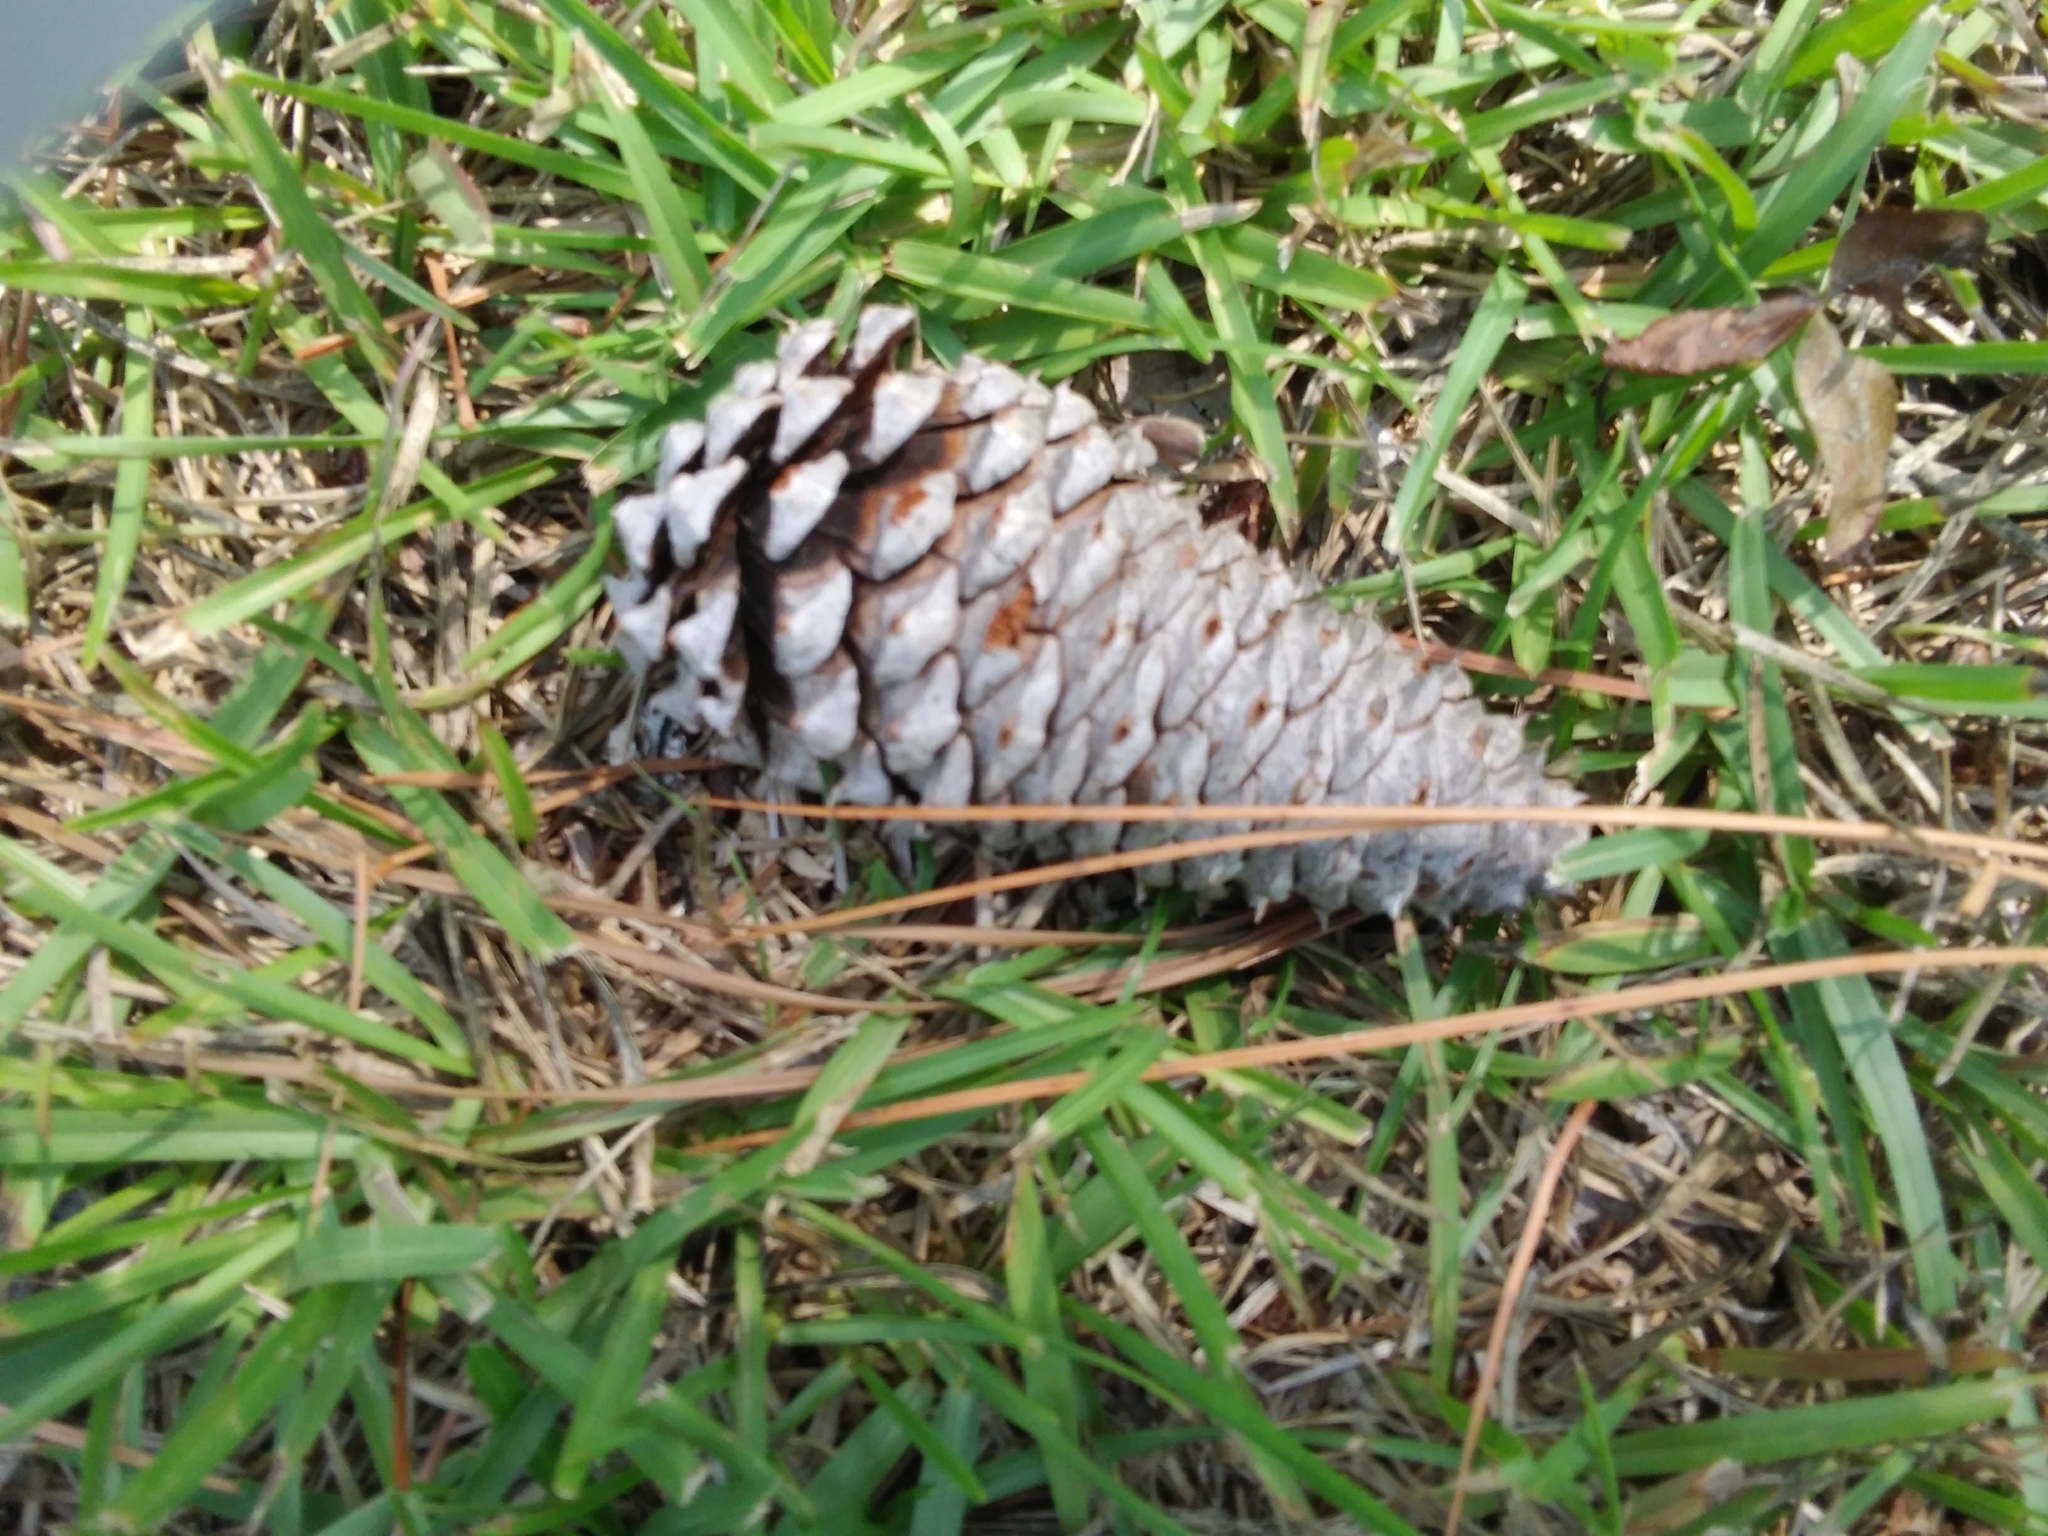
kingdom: Plantae
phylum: Tracheophyta
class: Pinopsida
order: Pinales
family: Pinaceae
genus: Pinus
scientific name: Pinus taeda
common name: Loblolly pine
